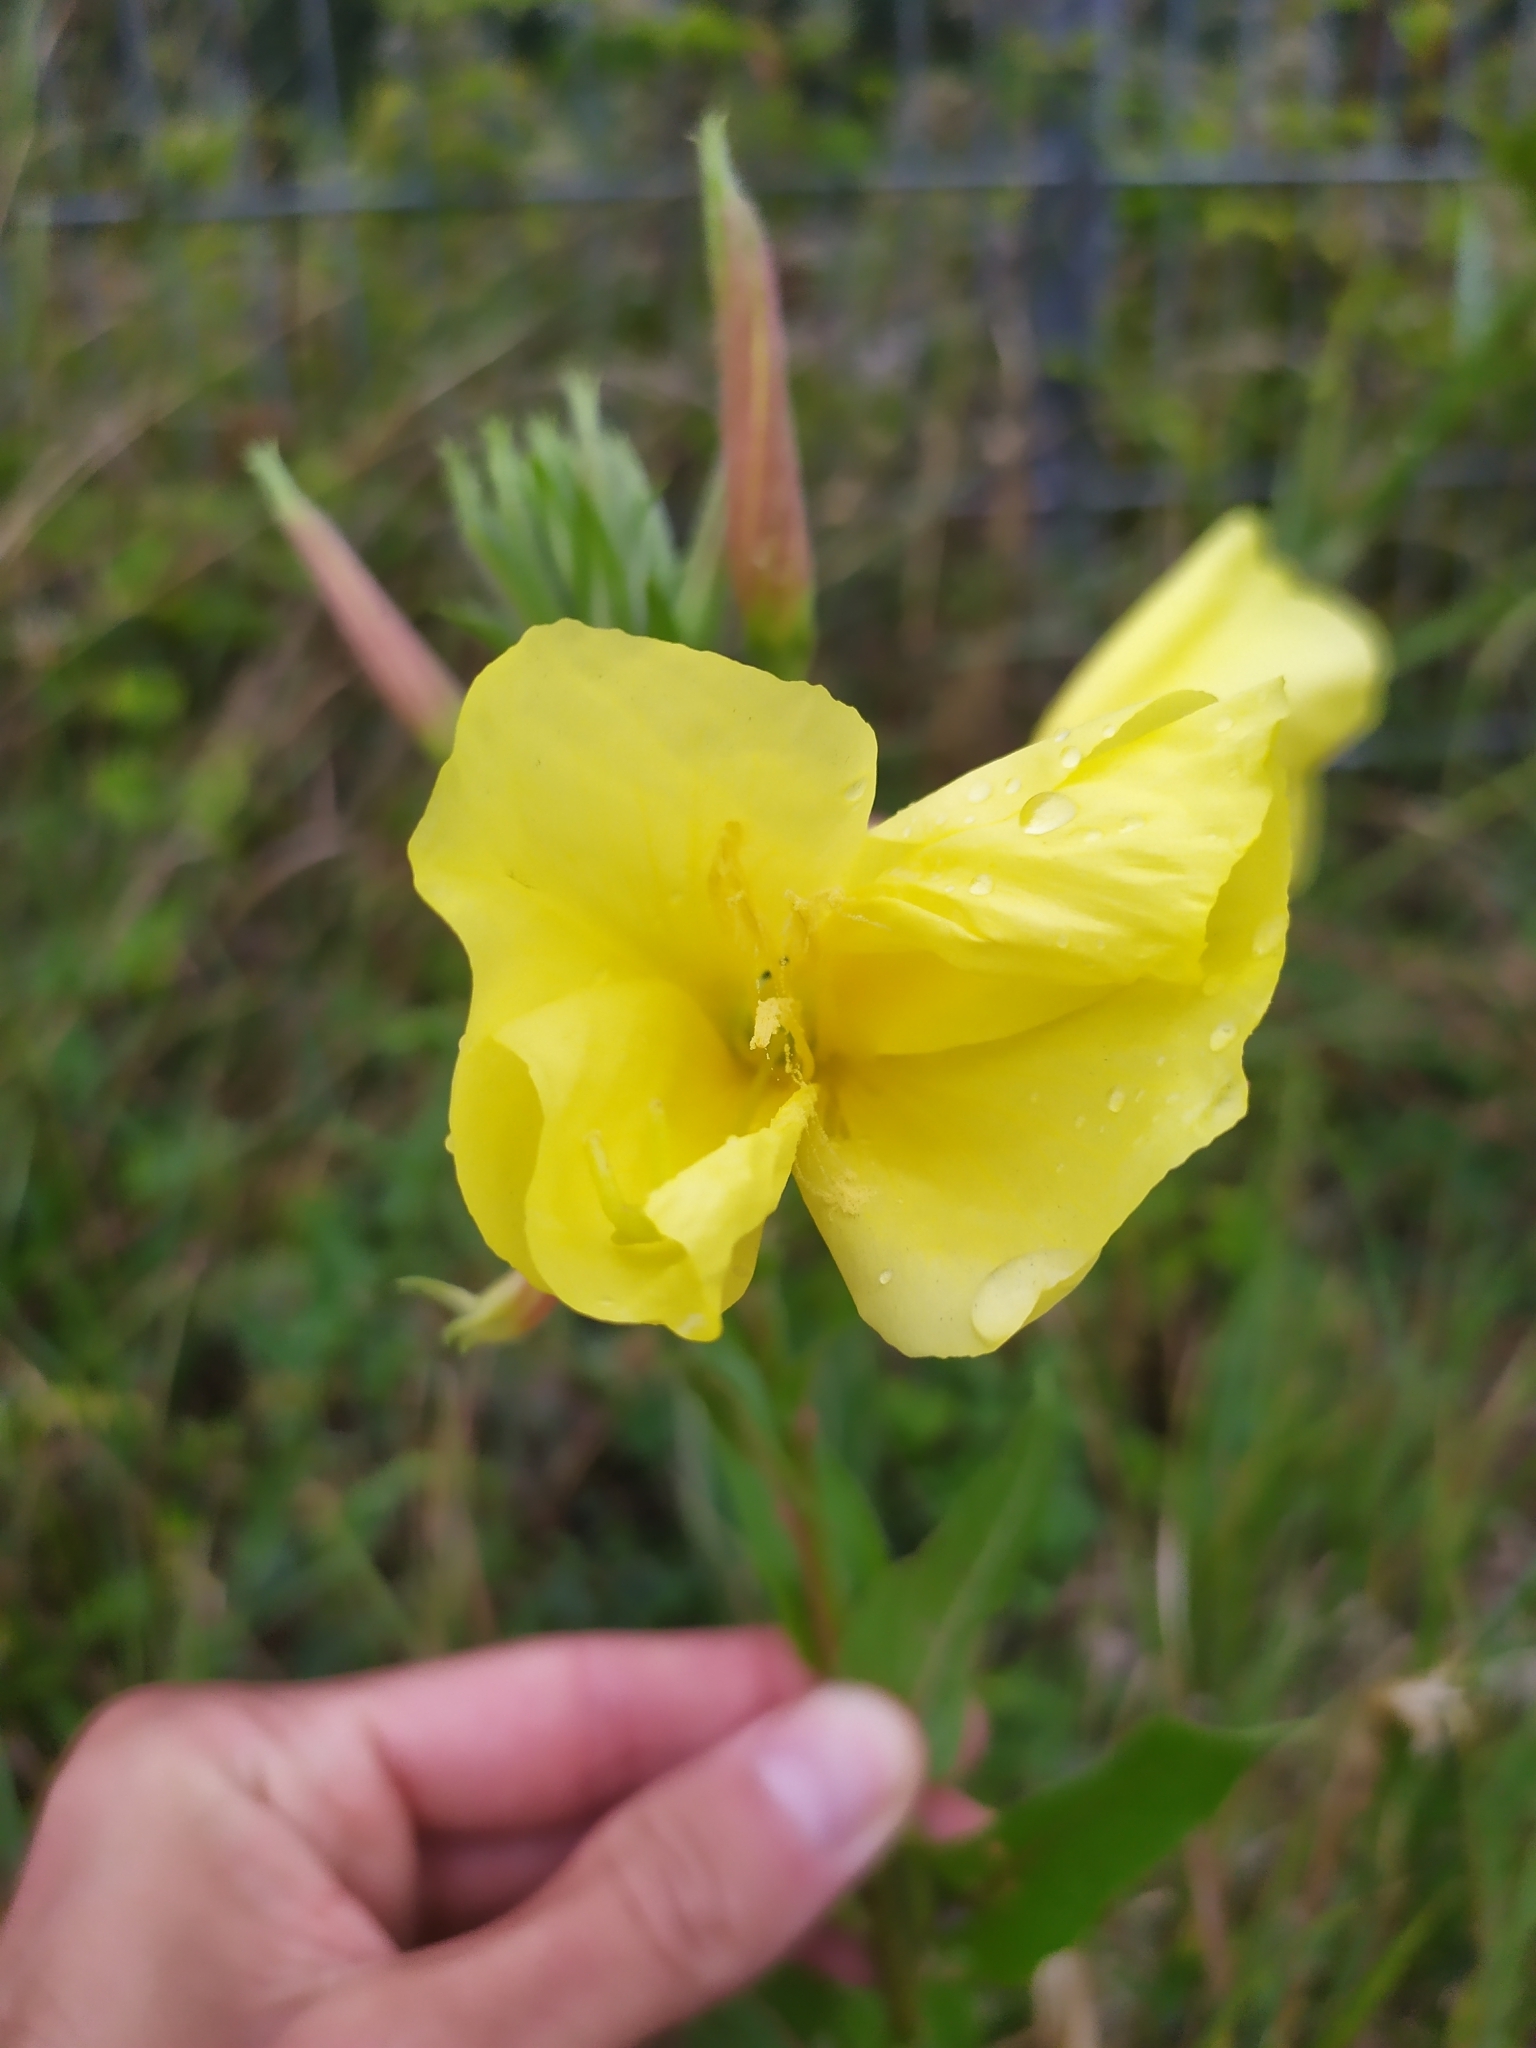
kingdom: Plantae
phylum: Tracheophyta
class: Magnoliopsida
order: Myrtales
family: Onagraceae
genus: Oenothera
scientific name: Oenothera glazioviana
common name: Large-flowered evening-primrose
